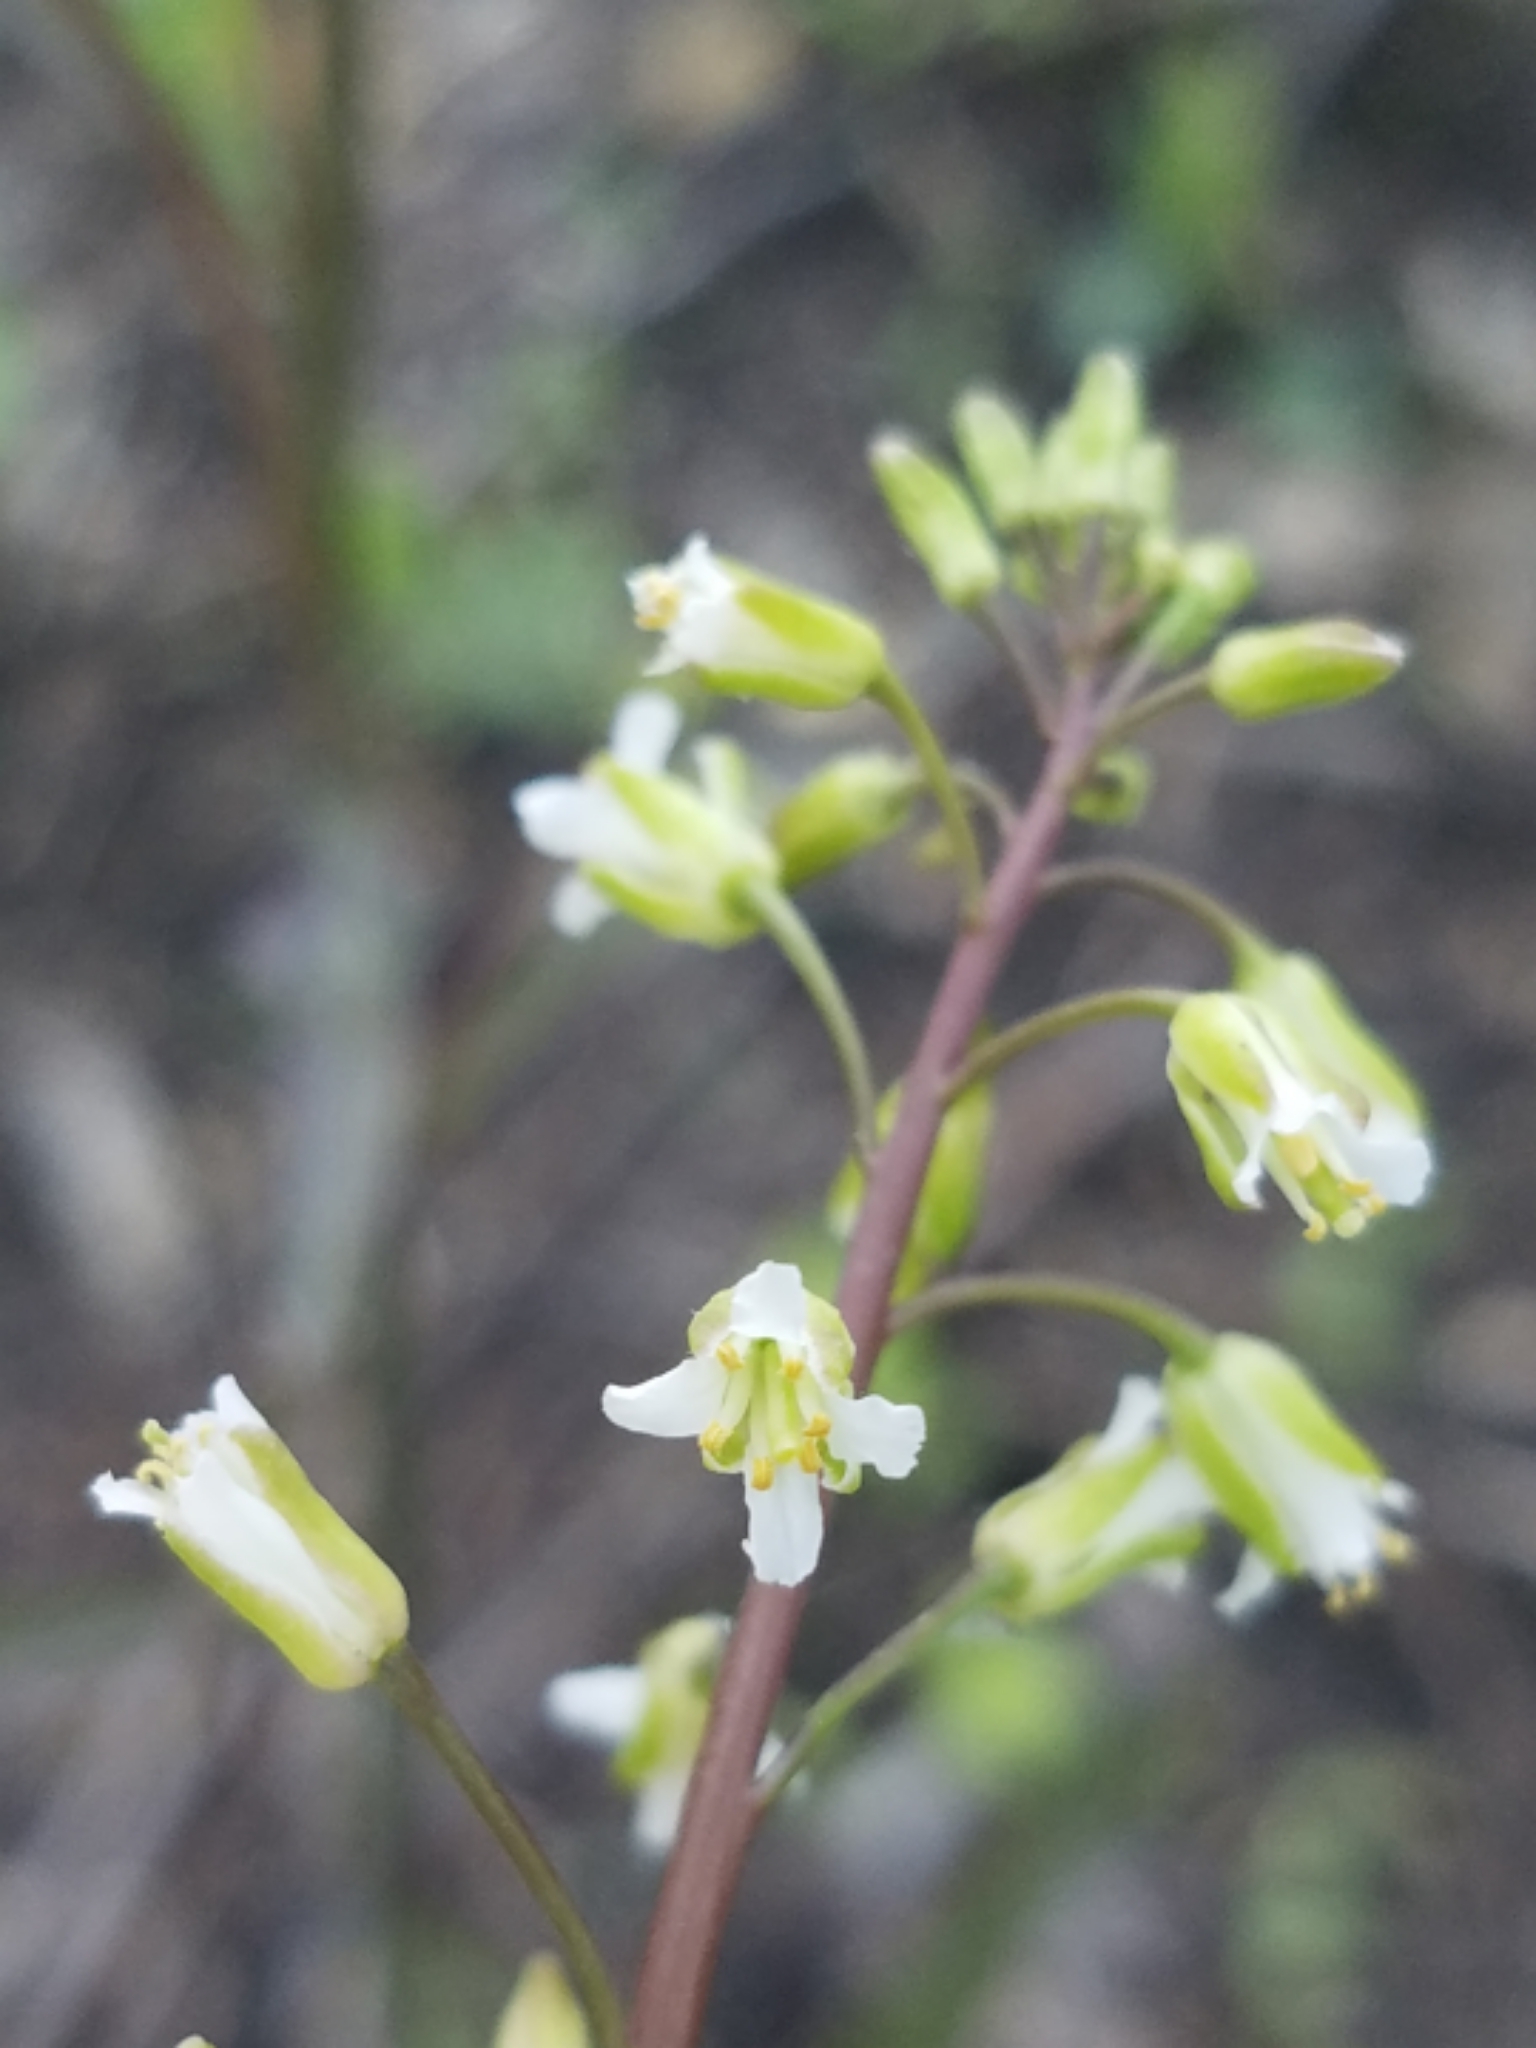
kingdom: Plantae
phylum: Tracheophyta
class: Magnoliopsida
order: Brassicales
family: Brassicaceae
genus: Borodinia
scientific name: Borodinia laevigata
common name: Smooth rockcress
